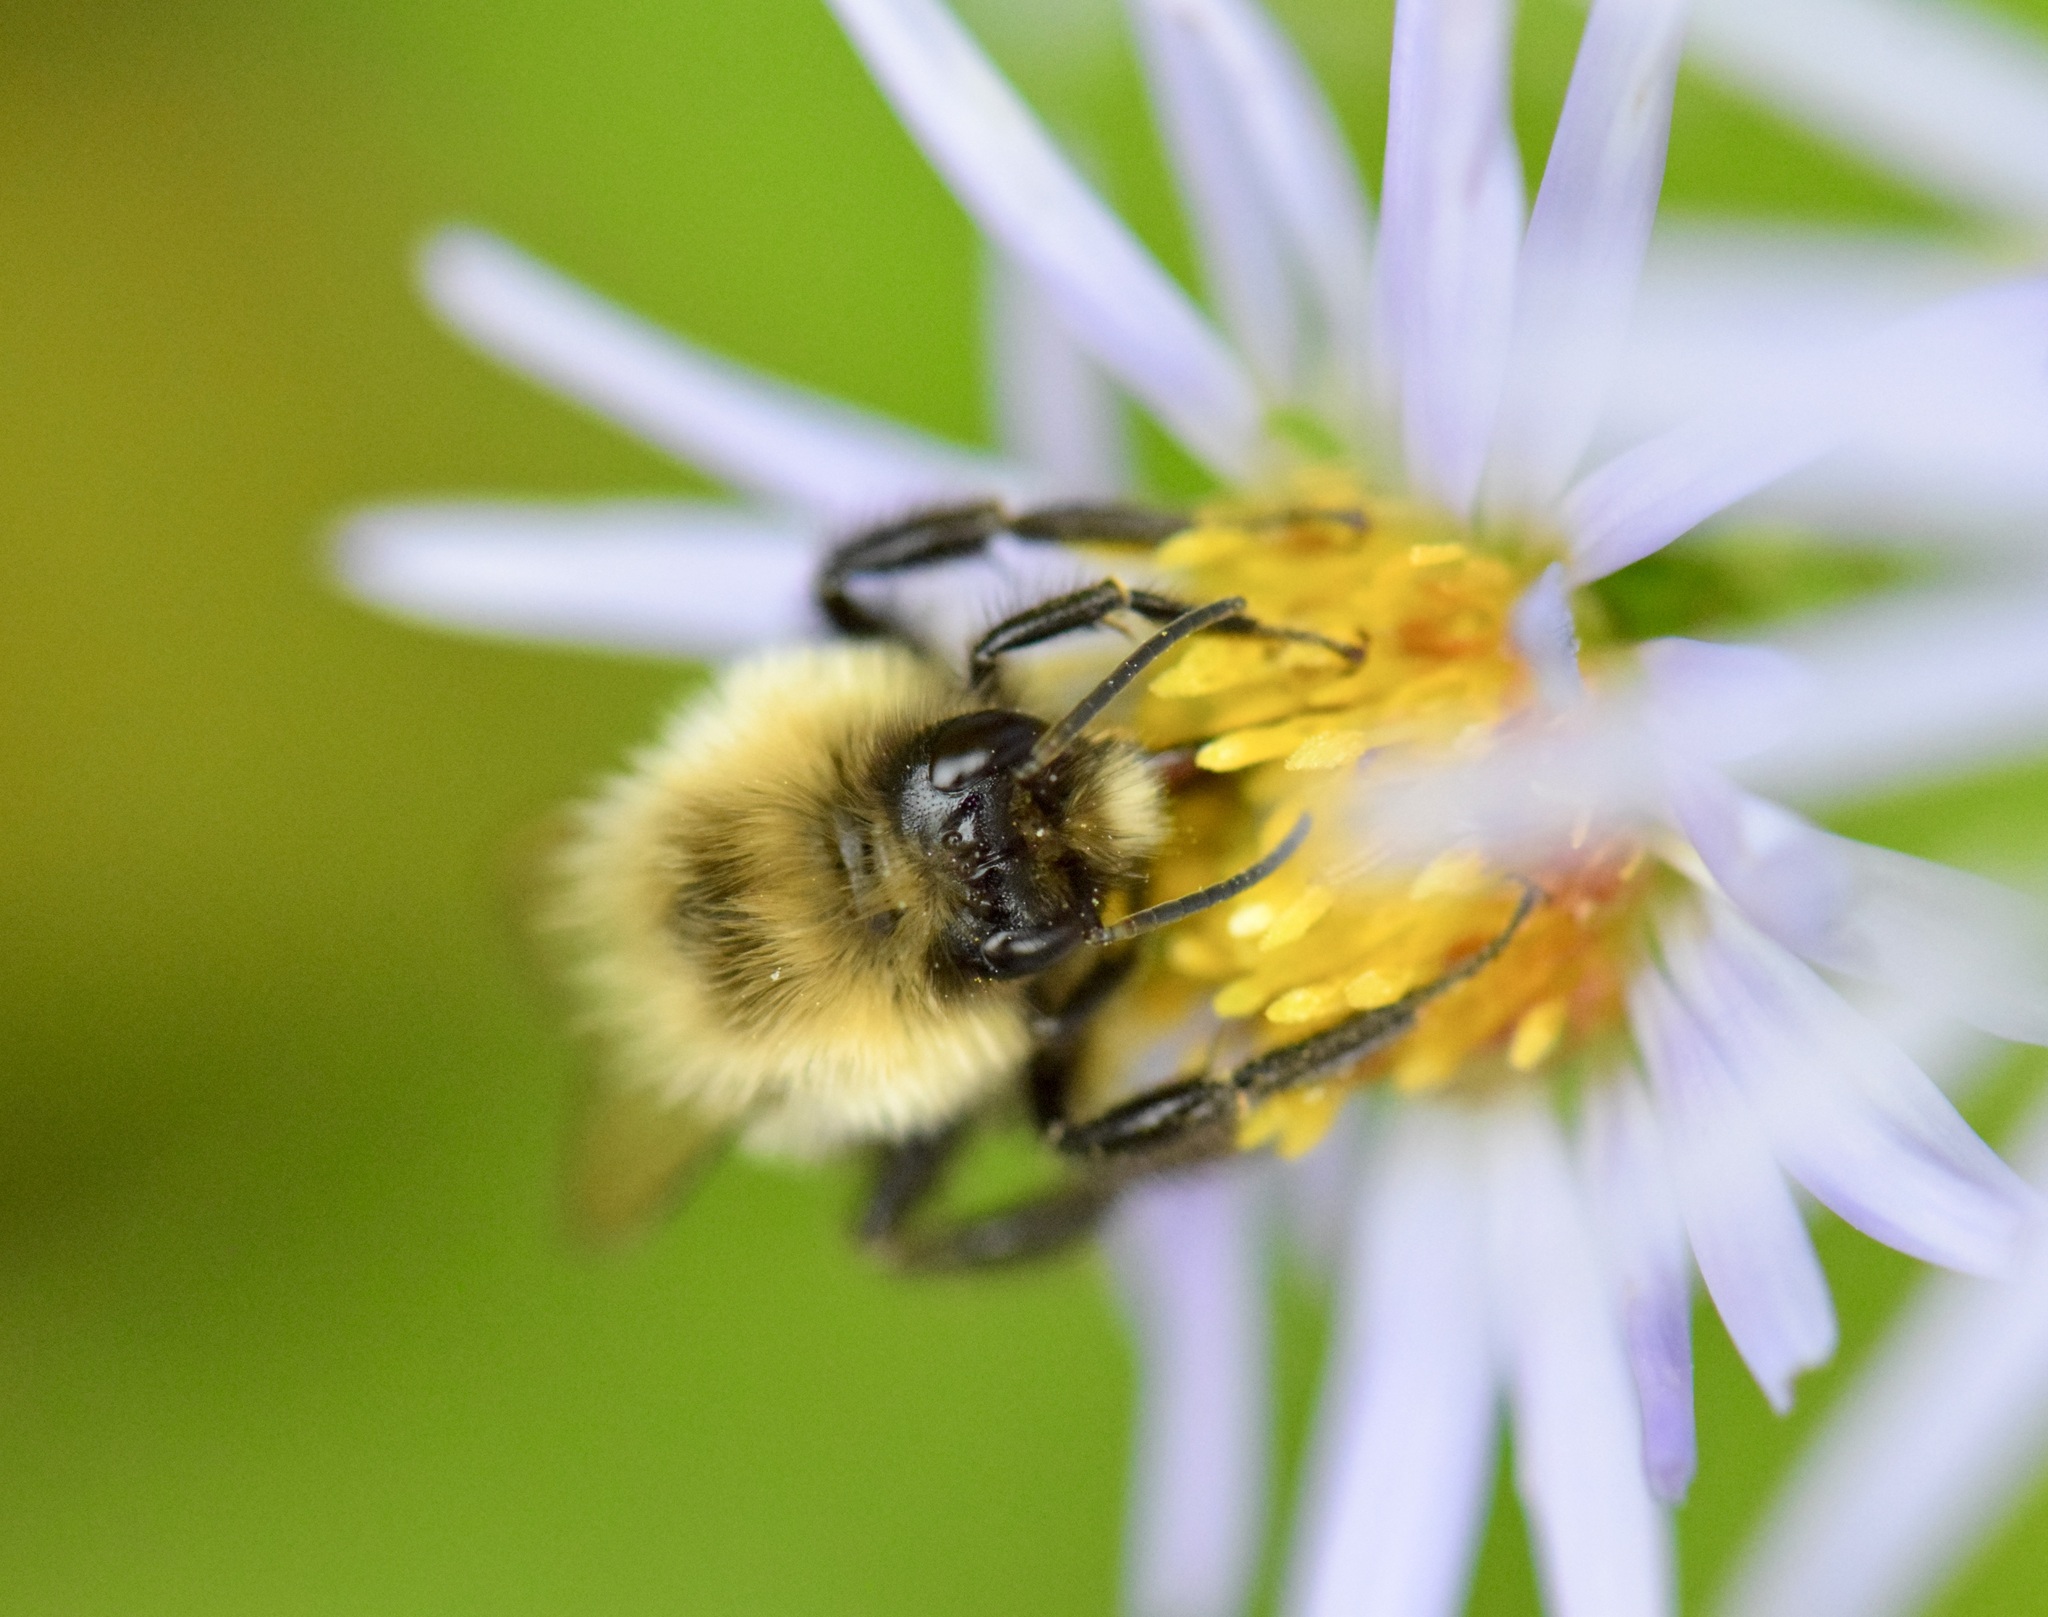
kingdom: Animalia
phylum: Arthropoda
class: Insecta
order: Hymenoptera
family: Apidae
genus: Bombus
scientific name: Bombus impatiens
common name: Common eastern bumble bee
